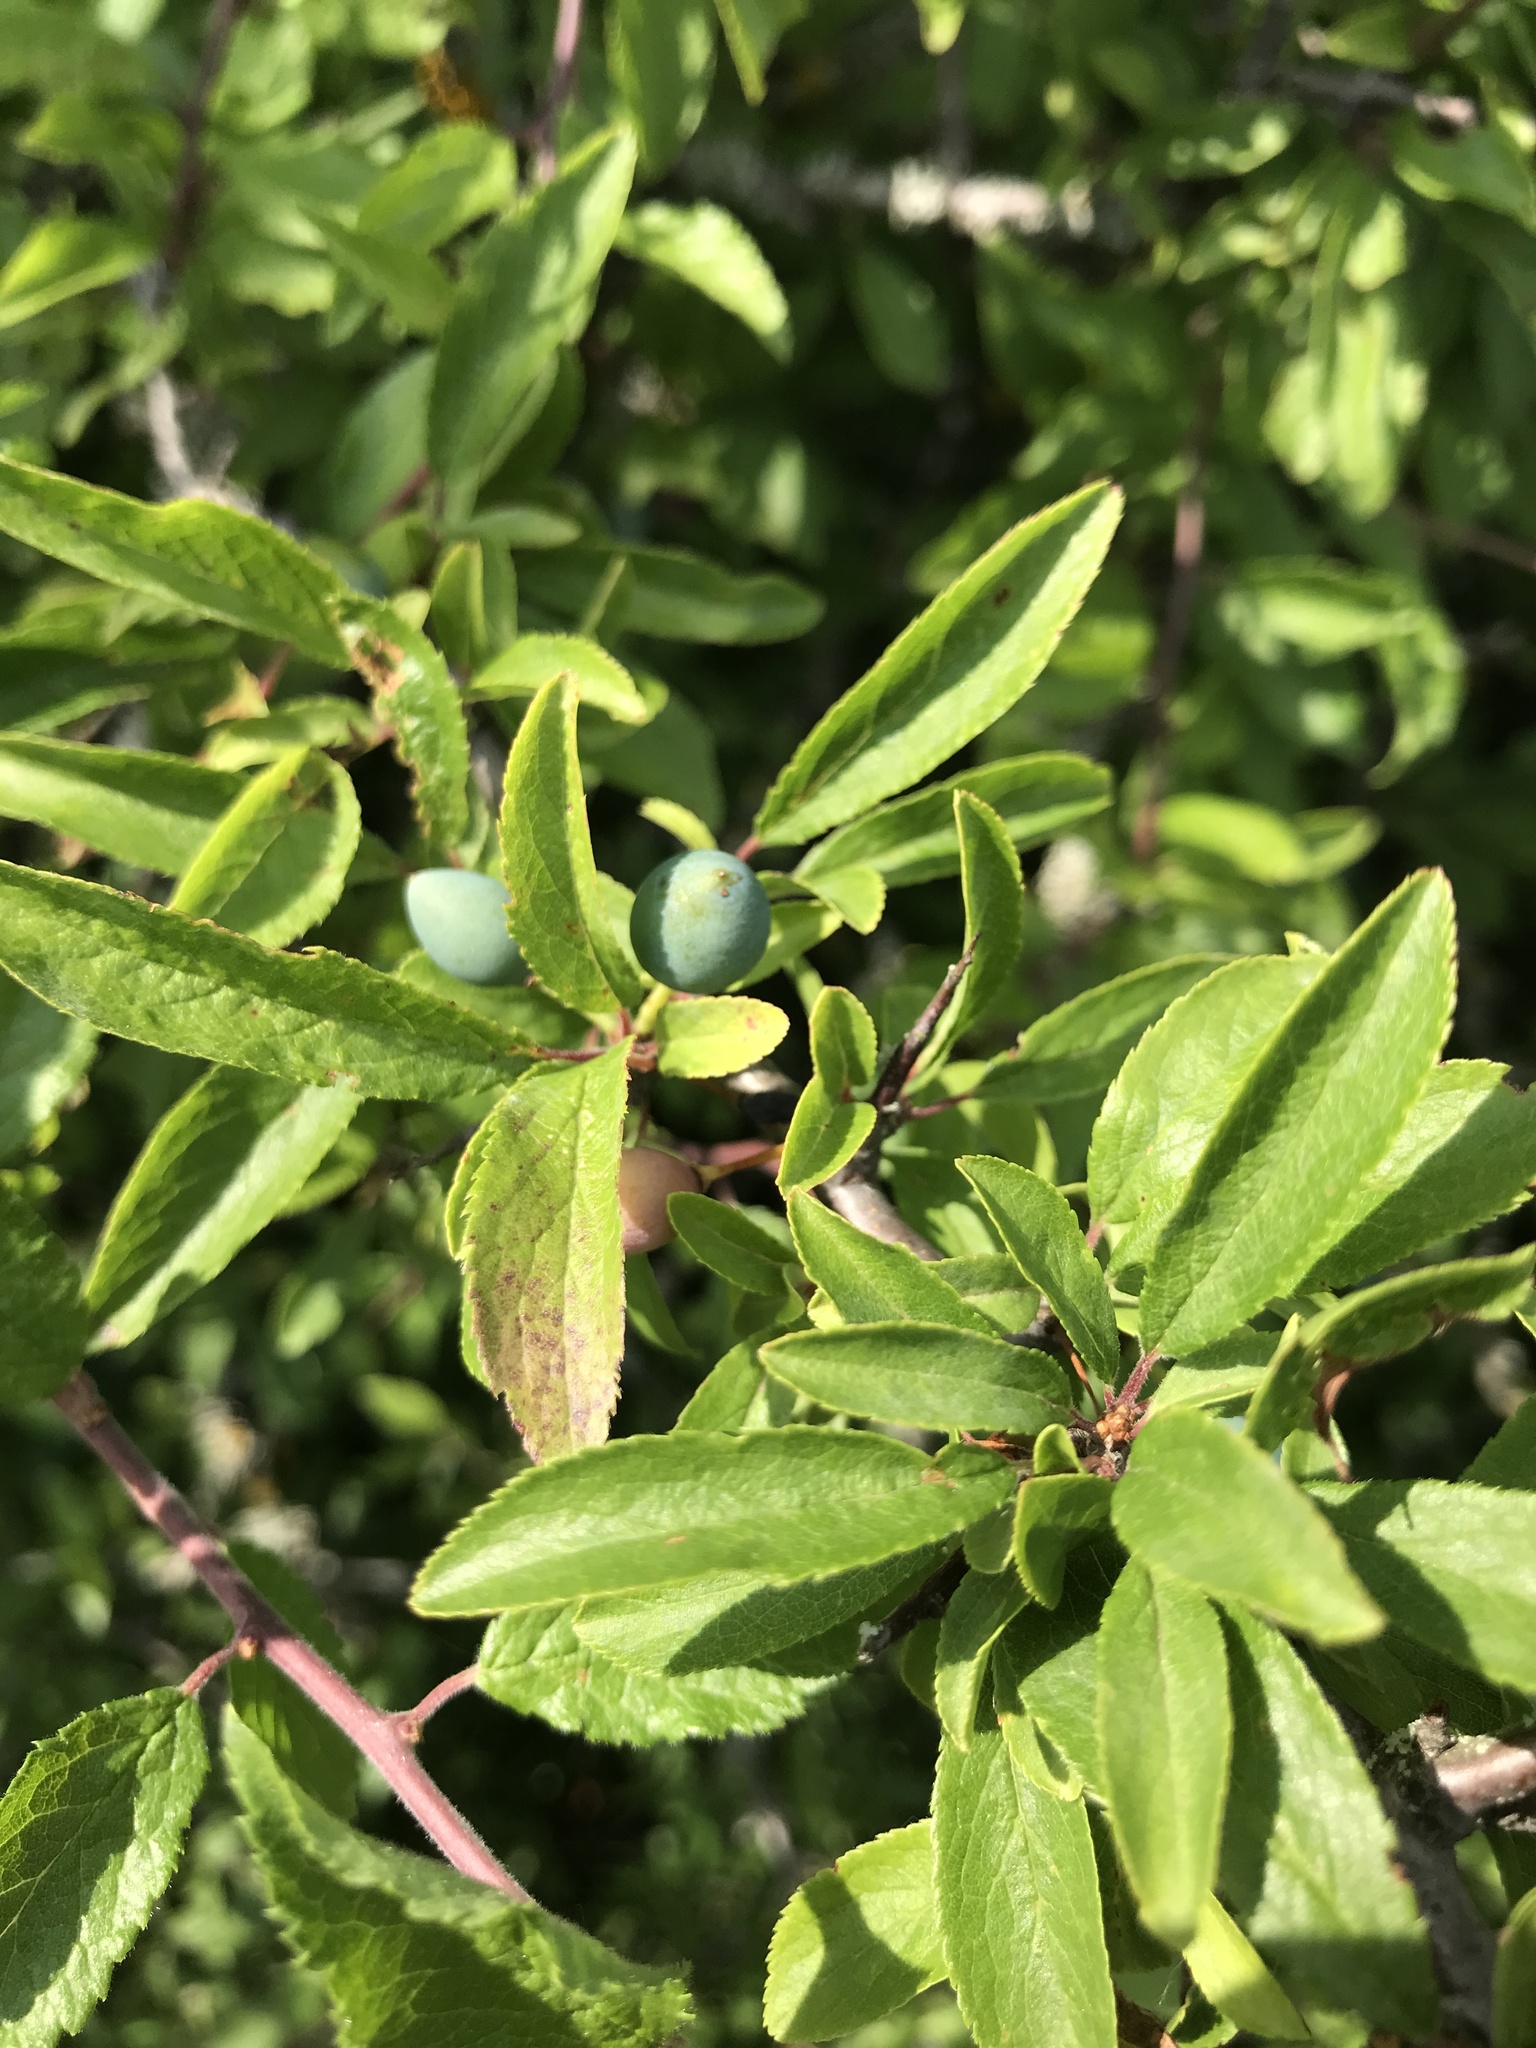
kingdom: Plantae
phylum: Tracheophyta
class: Magnoliopsida
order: Rosales
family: Rosaceae
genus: Prunus
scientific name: Prunus spinosa
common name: Blackthorn
